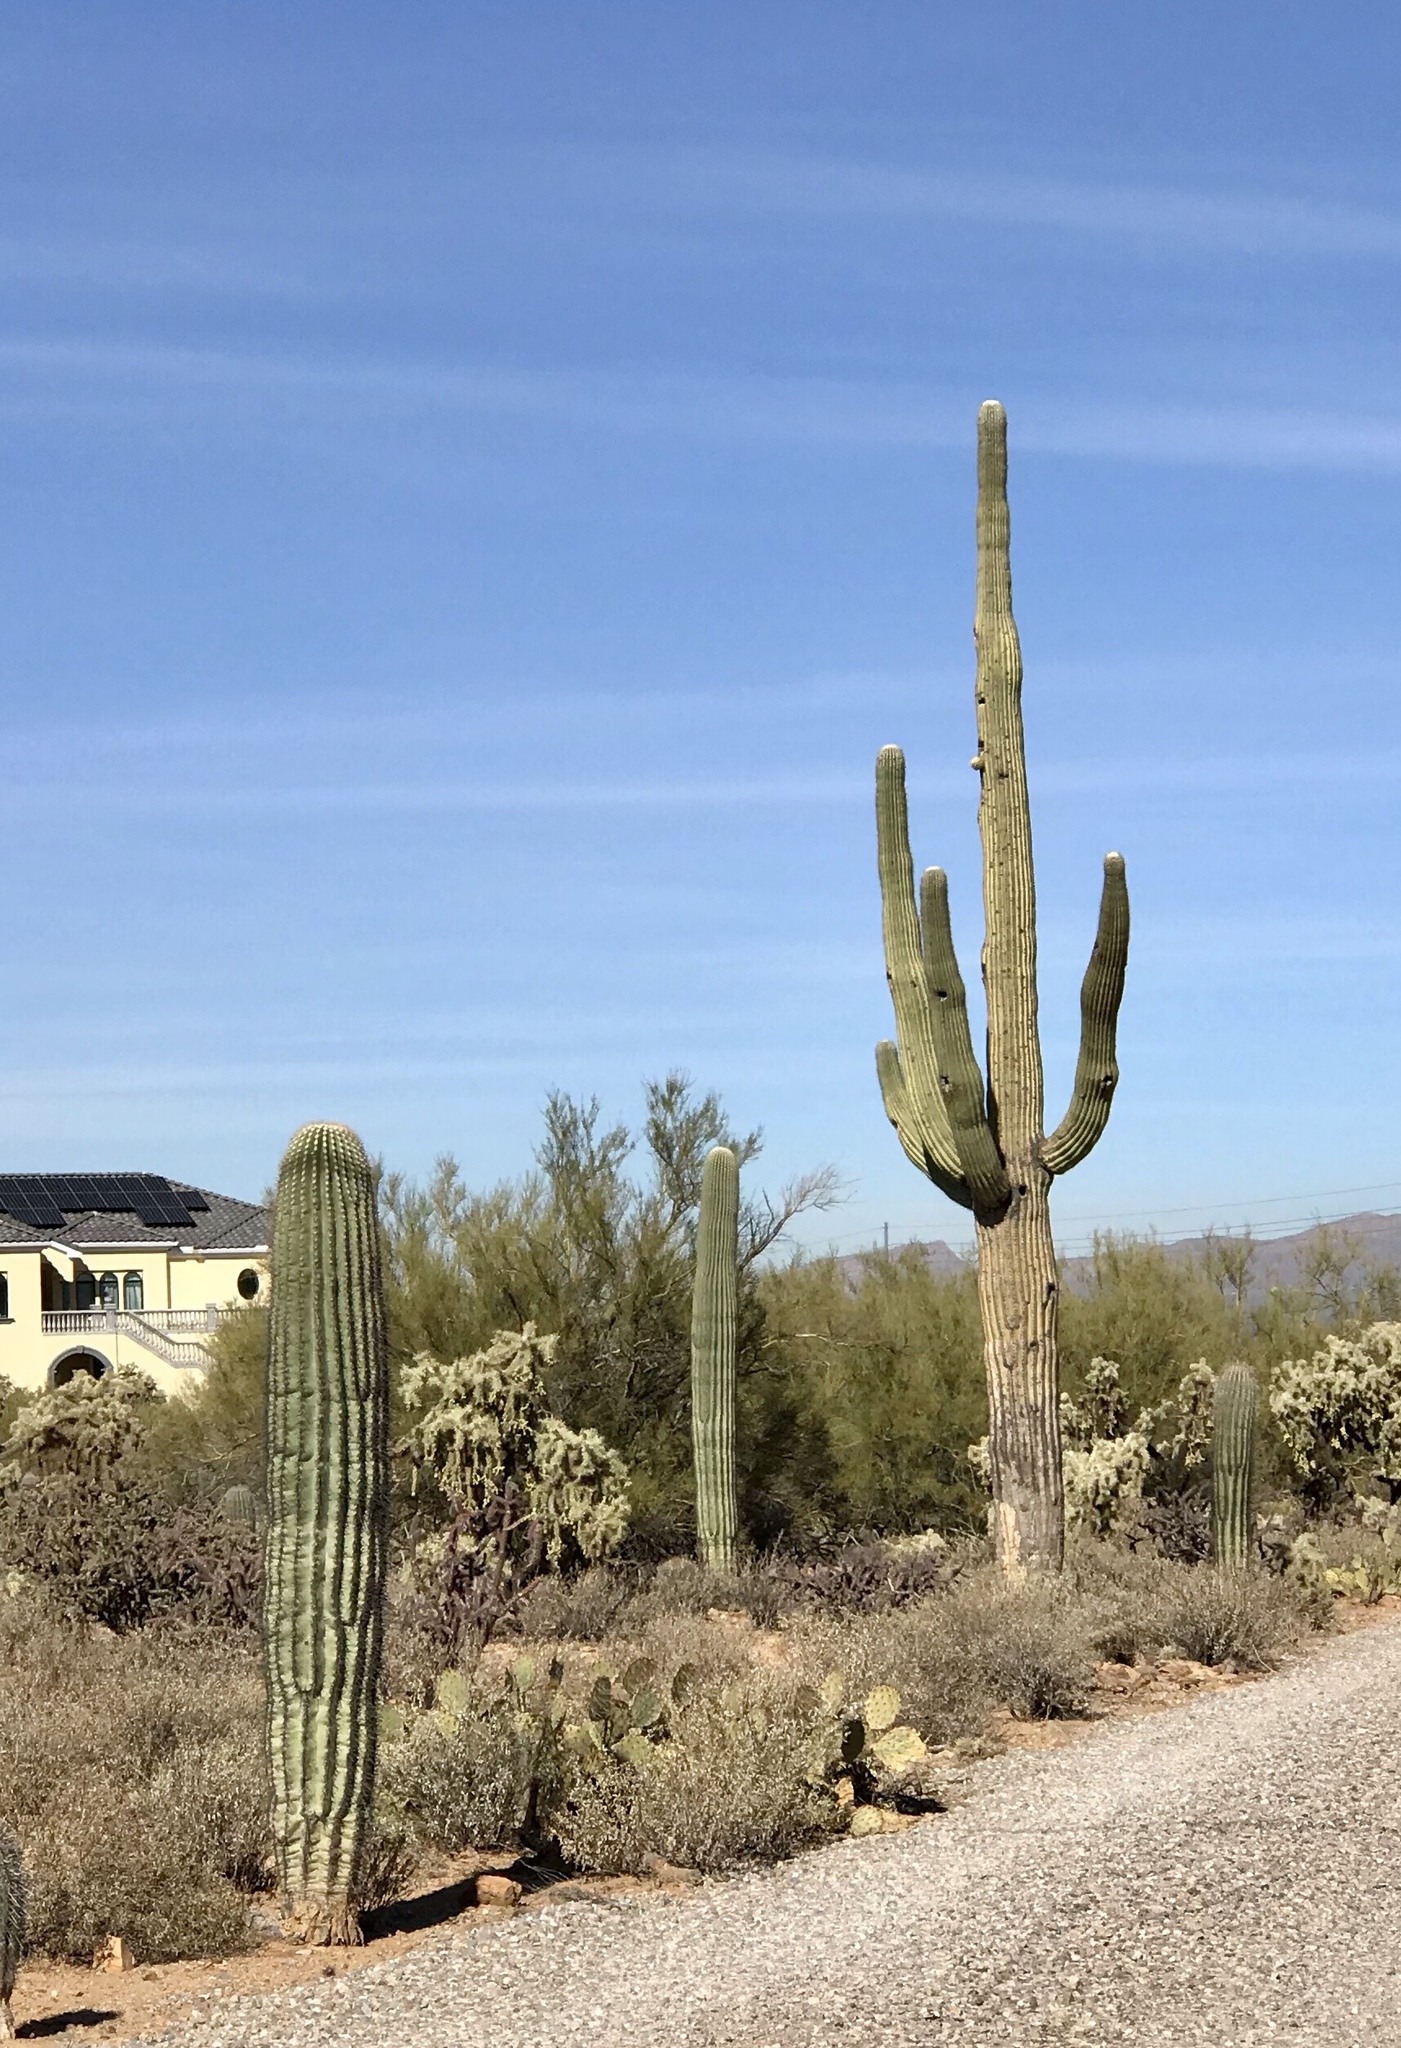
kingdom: Plantae
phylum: Tracheophyta
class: Magnoliopsida
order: Caryophyllales
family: Cactaceae
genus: Carnegiea
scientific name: Carnegiea gigantea
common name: Saguaro
